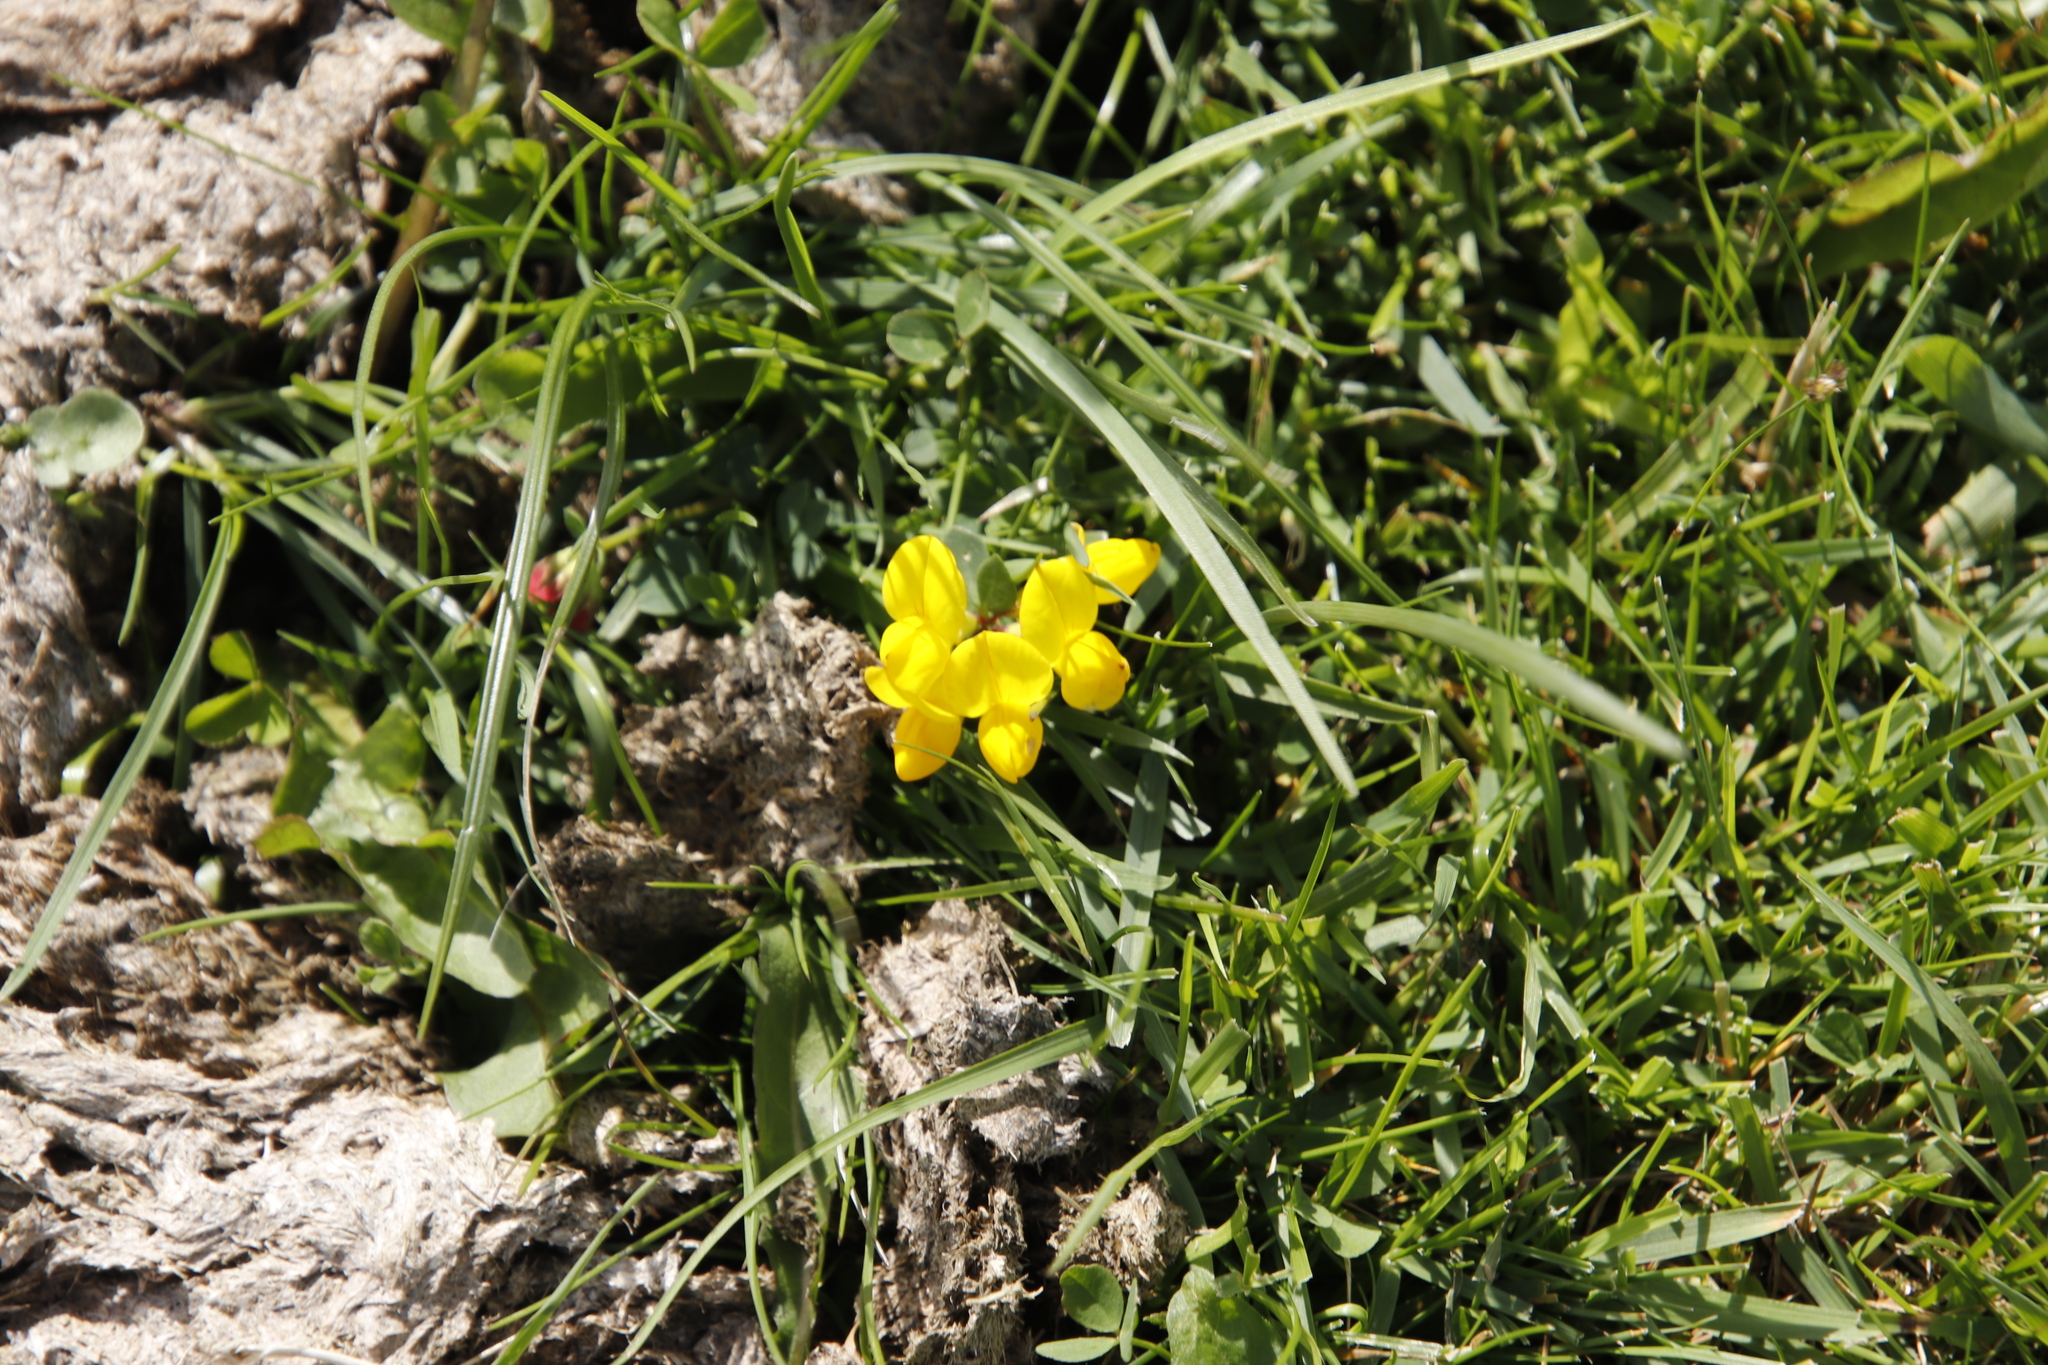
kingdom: Plantae
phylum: Tracheophyta
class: Magnoliopsida
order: Fabales
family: Fabaceae
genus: Lotus
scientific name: Lotus corniculatus
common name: Common bird's-foot-trefoil
